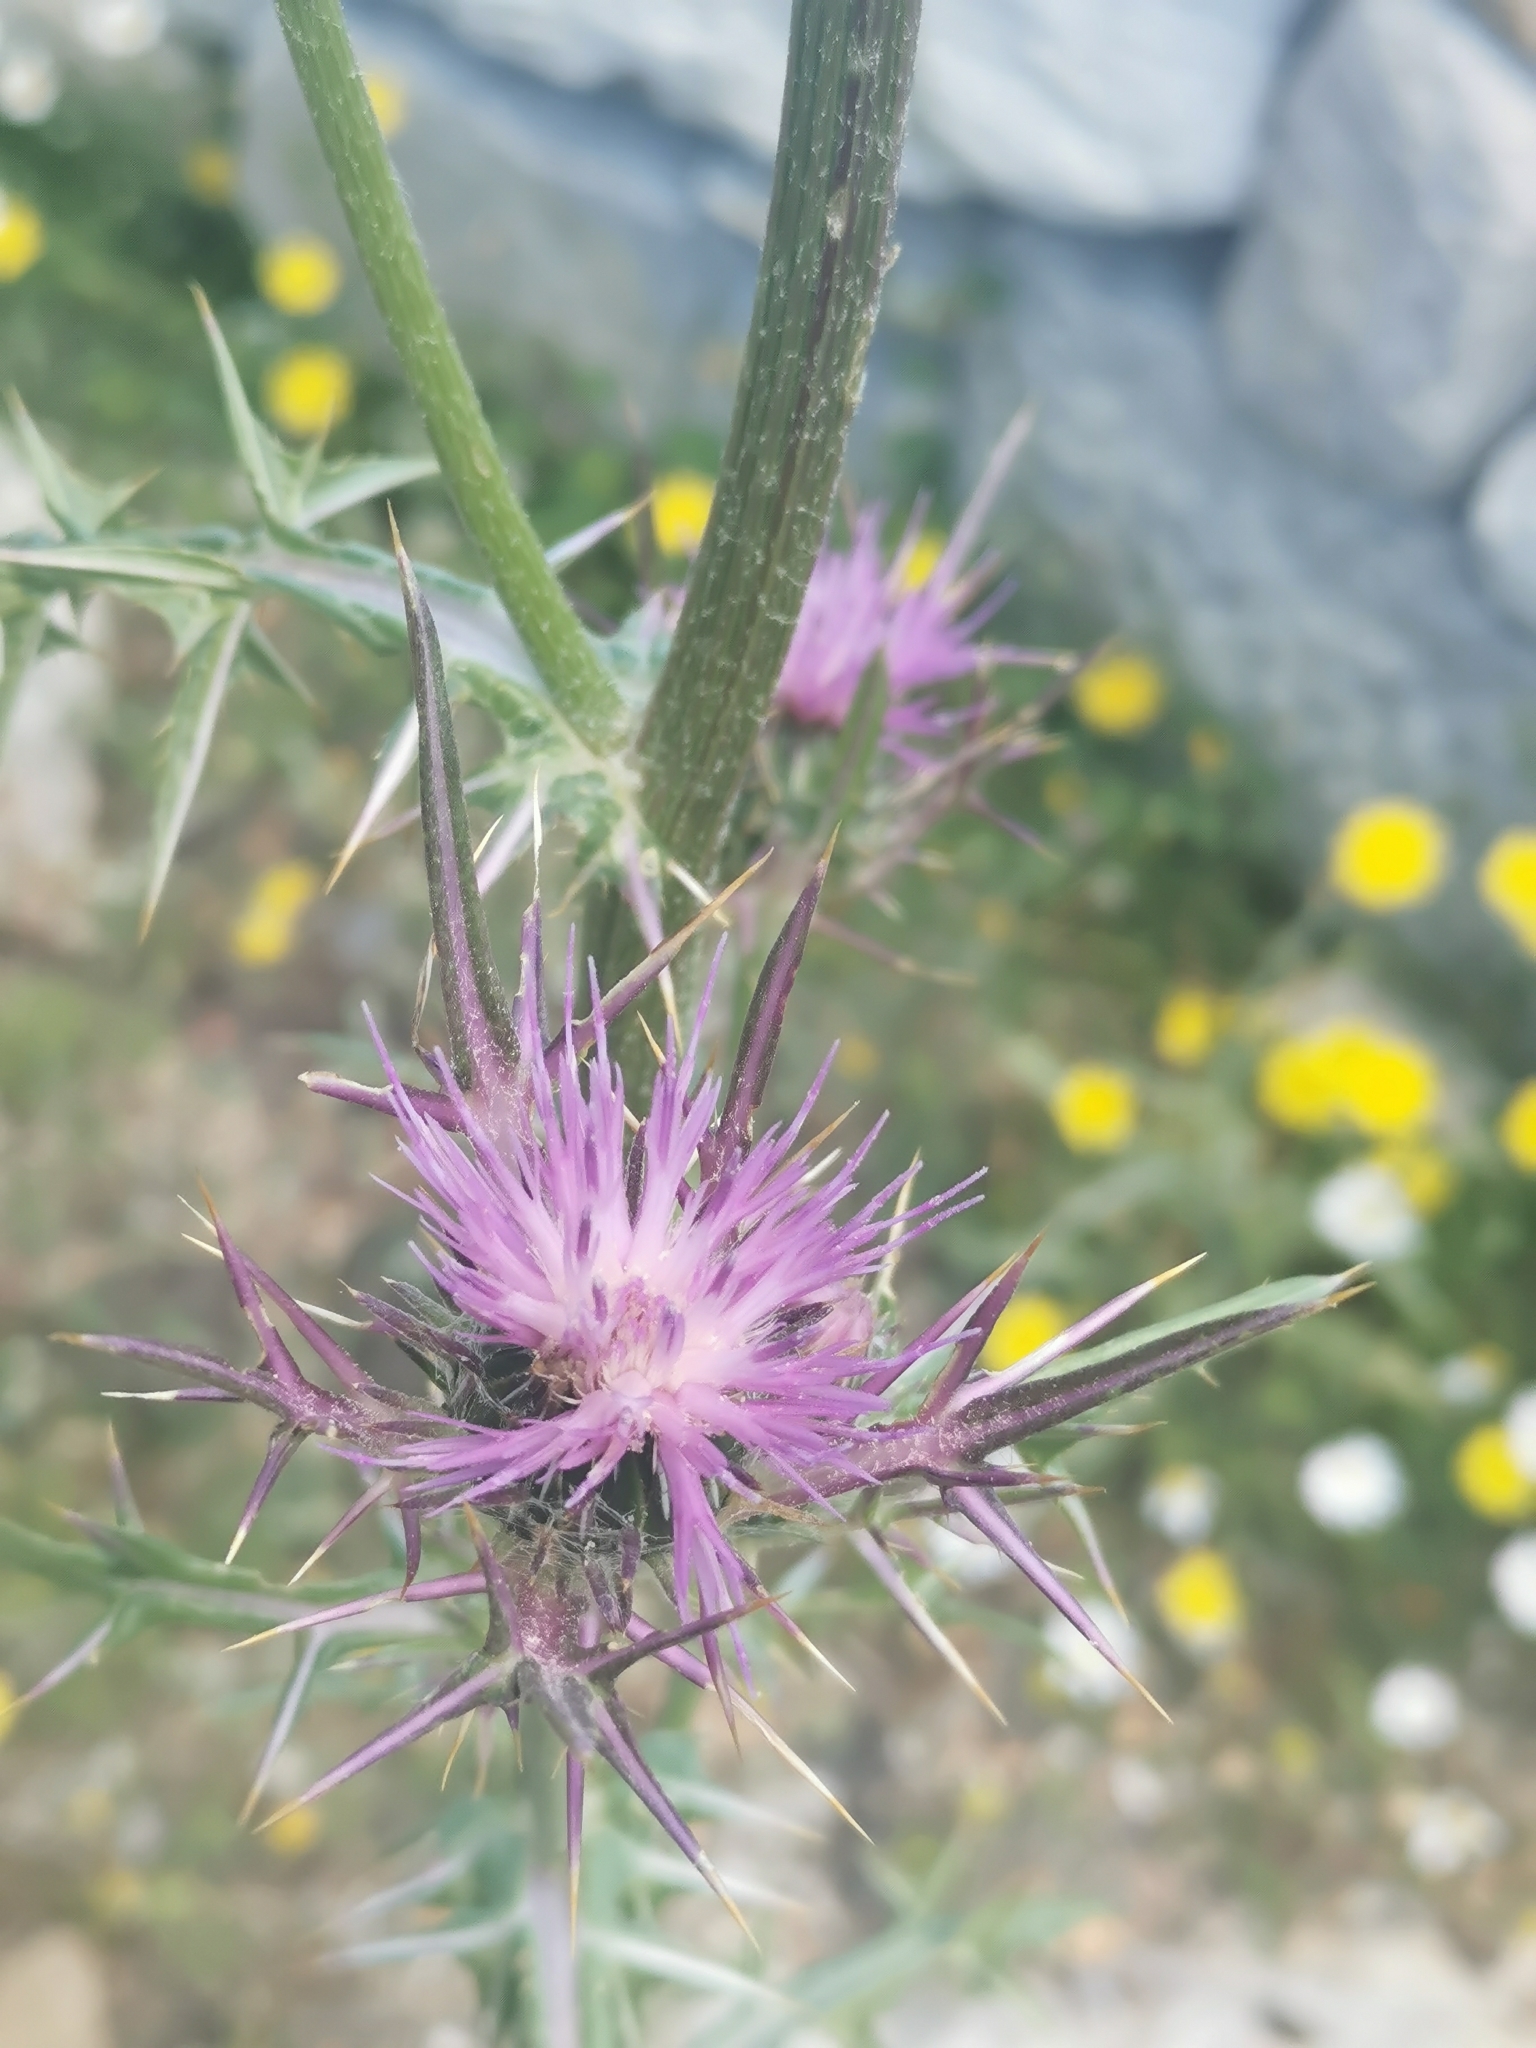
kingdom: Plantae
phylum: Tracheophyta
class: Magnoliopsida
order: Asterales
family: Asteraceae
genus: Notobasis
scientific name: Notobasis syriaca
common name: Syrian thistle
